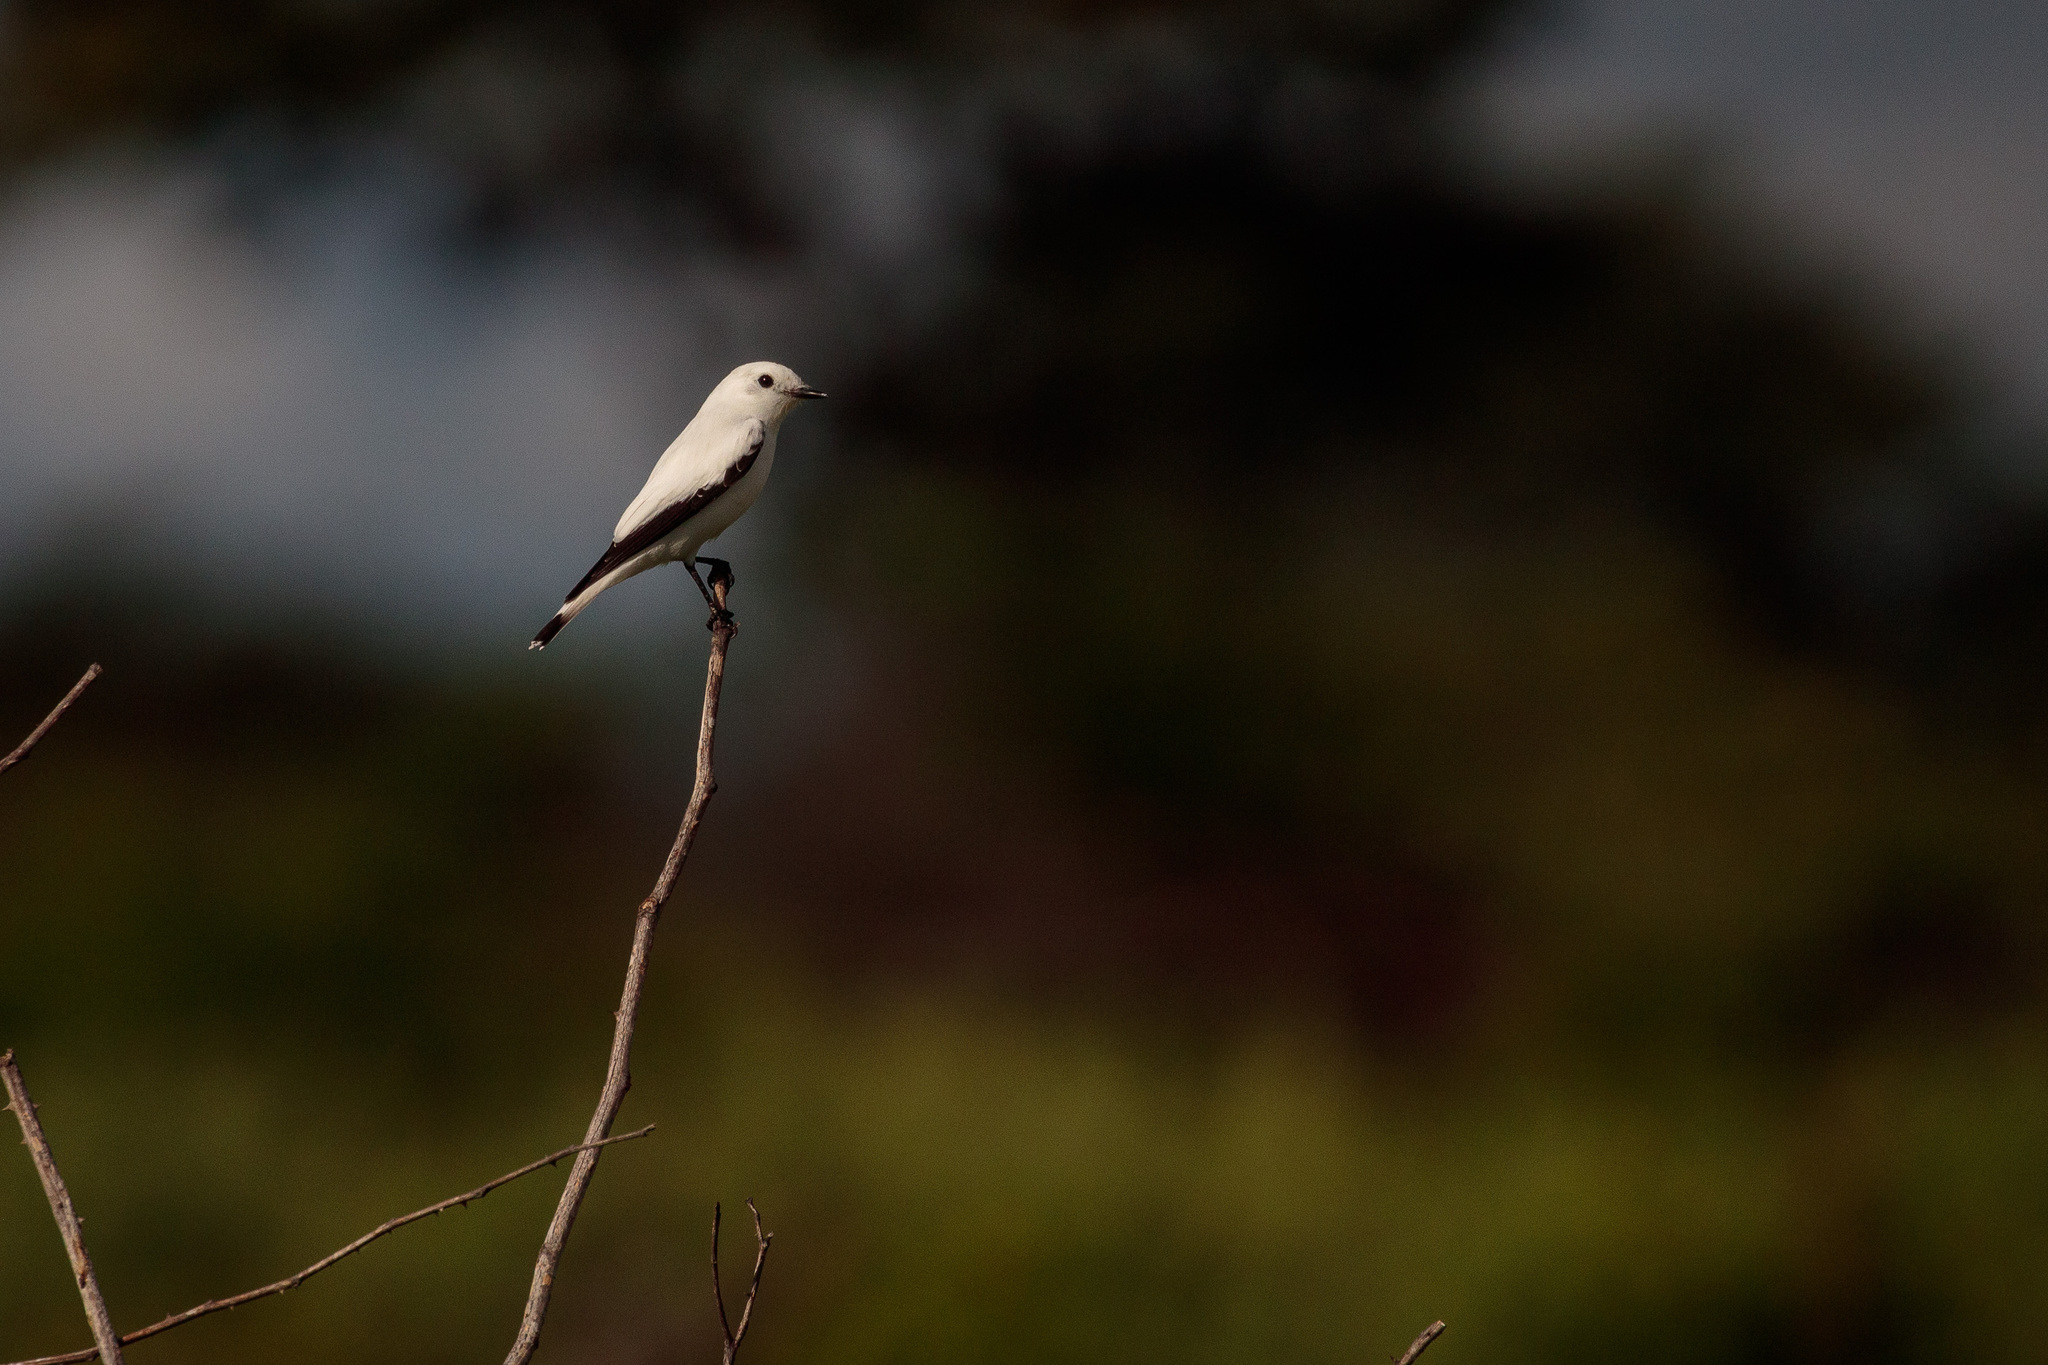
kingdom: Animalia
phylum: Chordata
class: Aves
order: Passeriformes
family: Tyrannidae
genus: Xolmis
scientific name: Xolmis irupero
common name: White monjita
